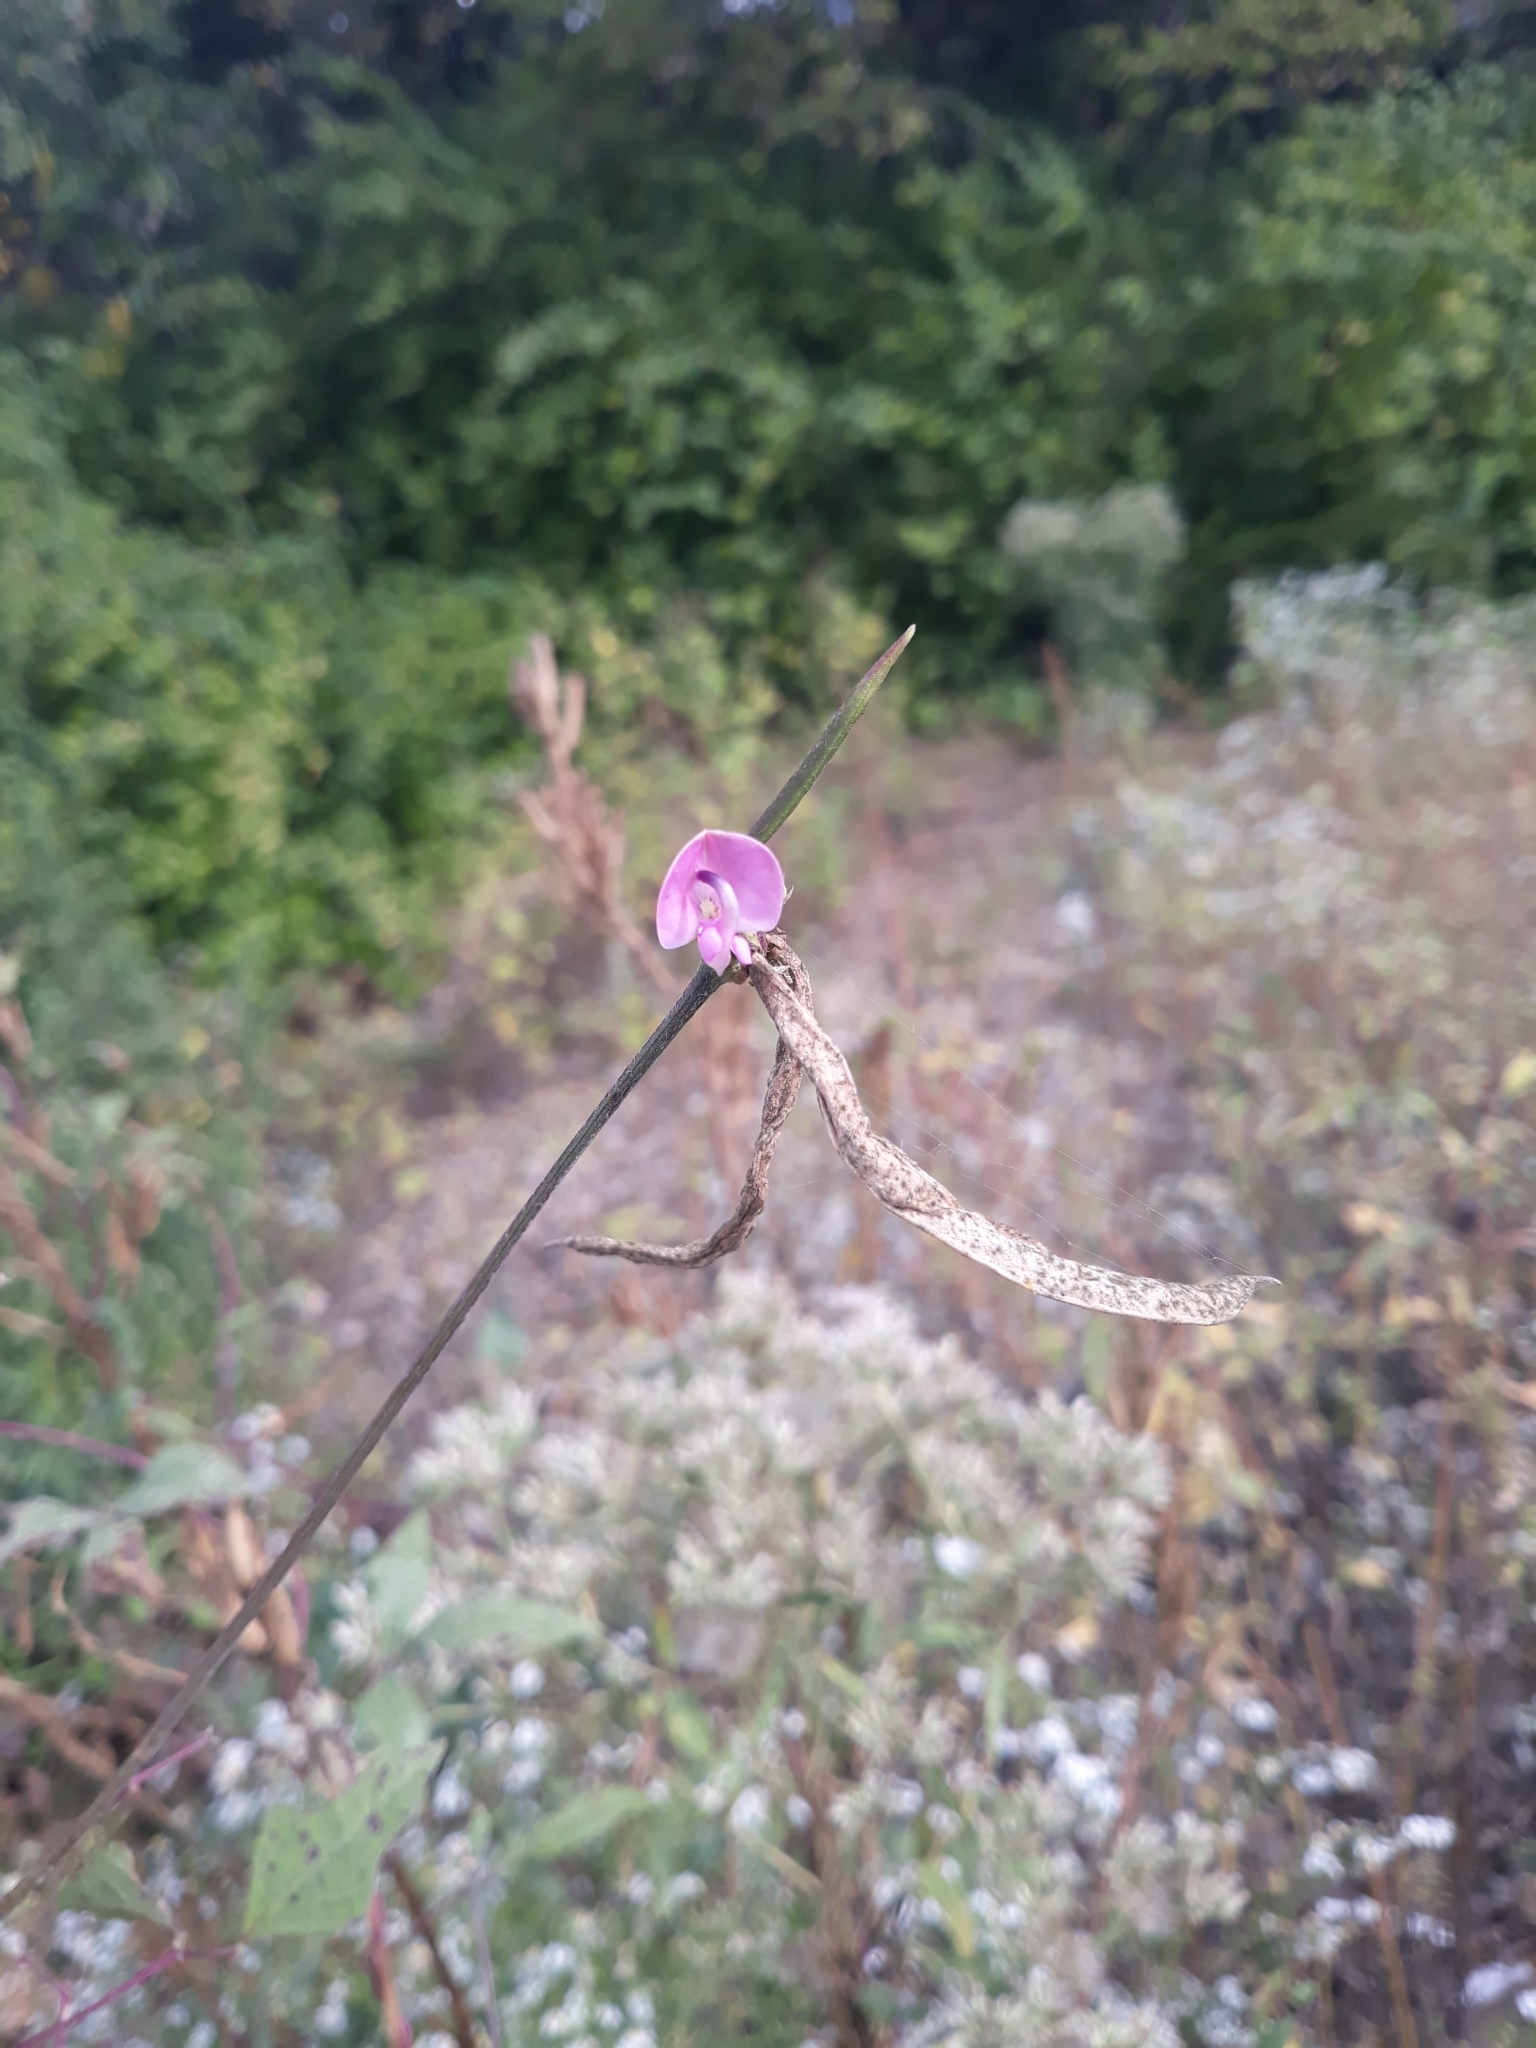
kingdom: Plantae
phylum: Tracheophyta
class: Magnoliopsida
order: Fabales
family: Fabaceae
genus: Strophostyles
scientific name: Strophostyles helvola
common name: Trailing wild bean
